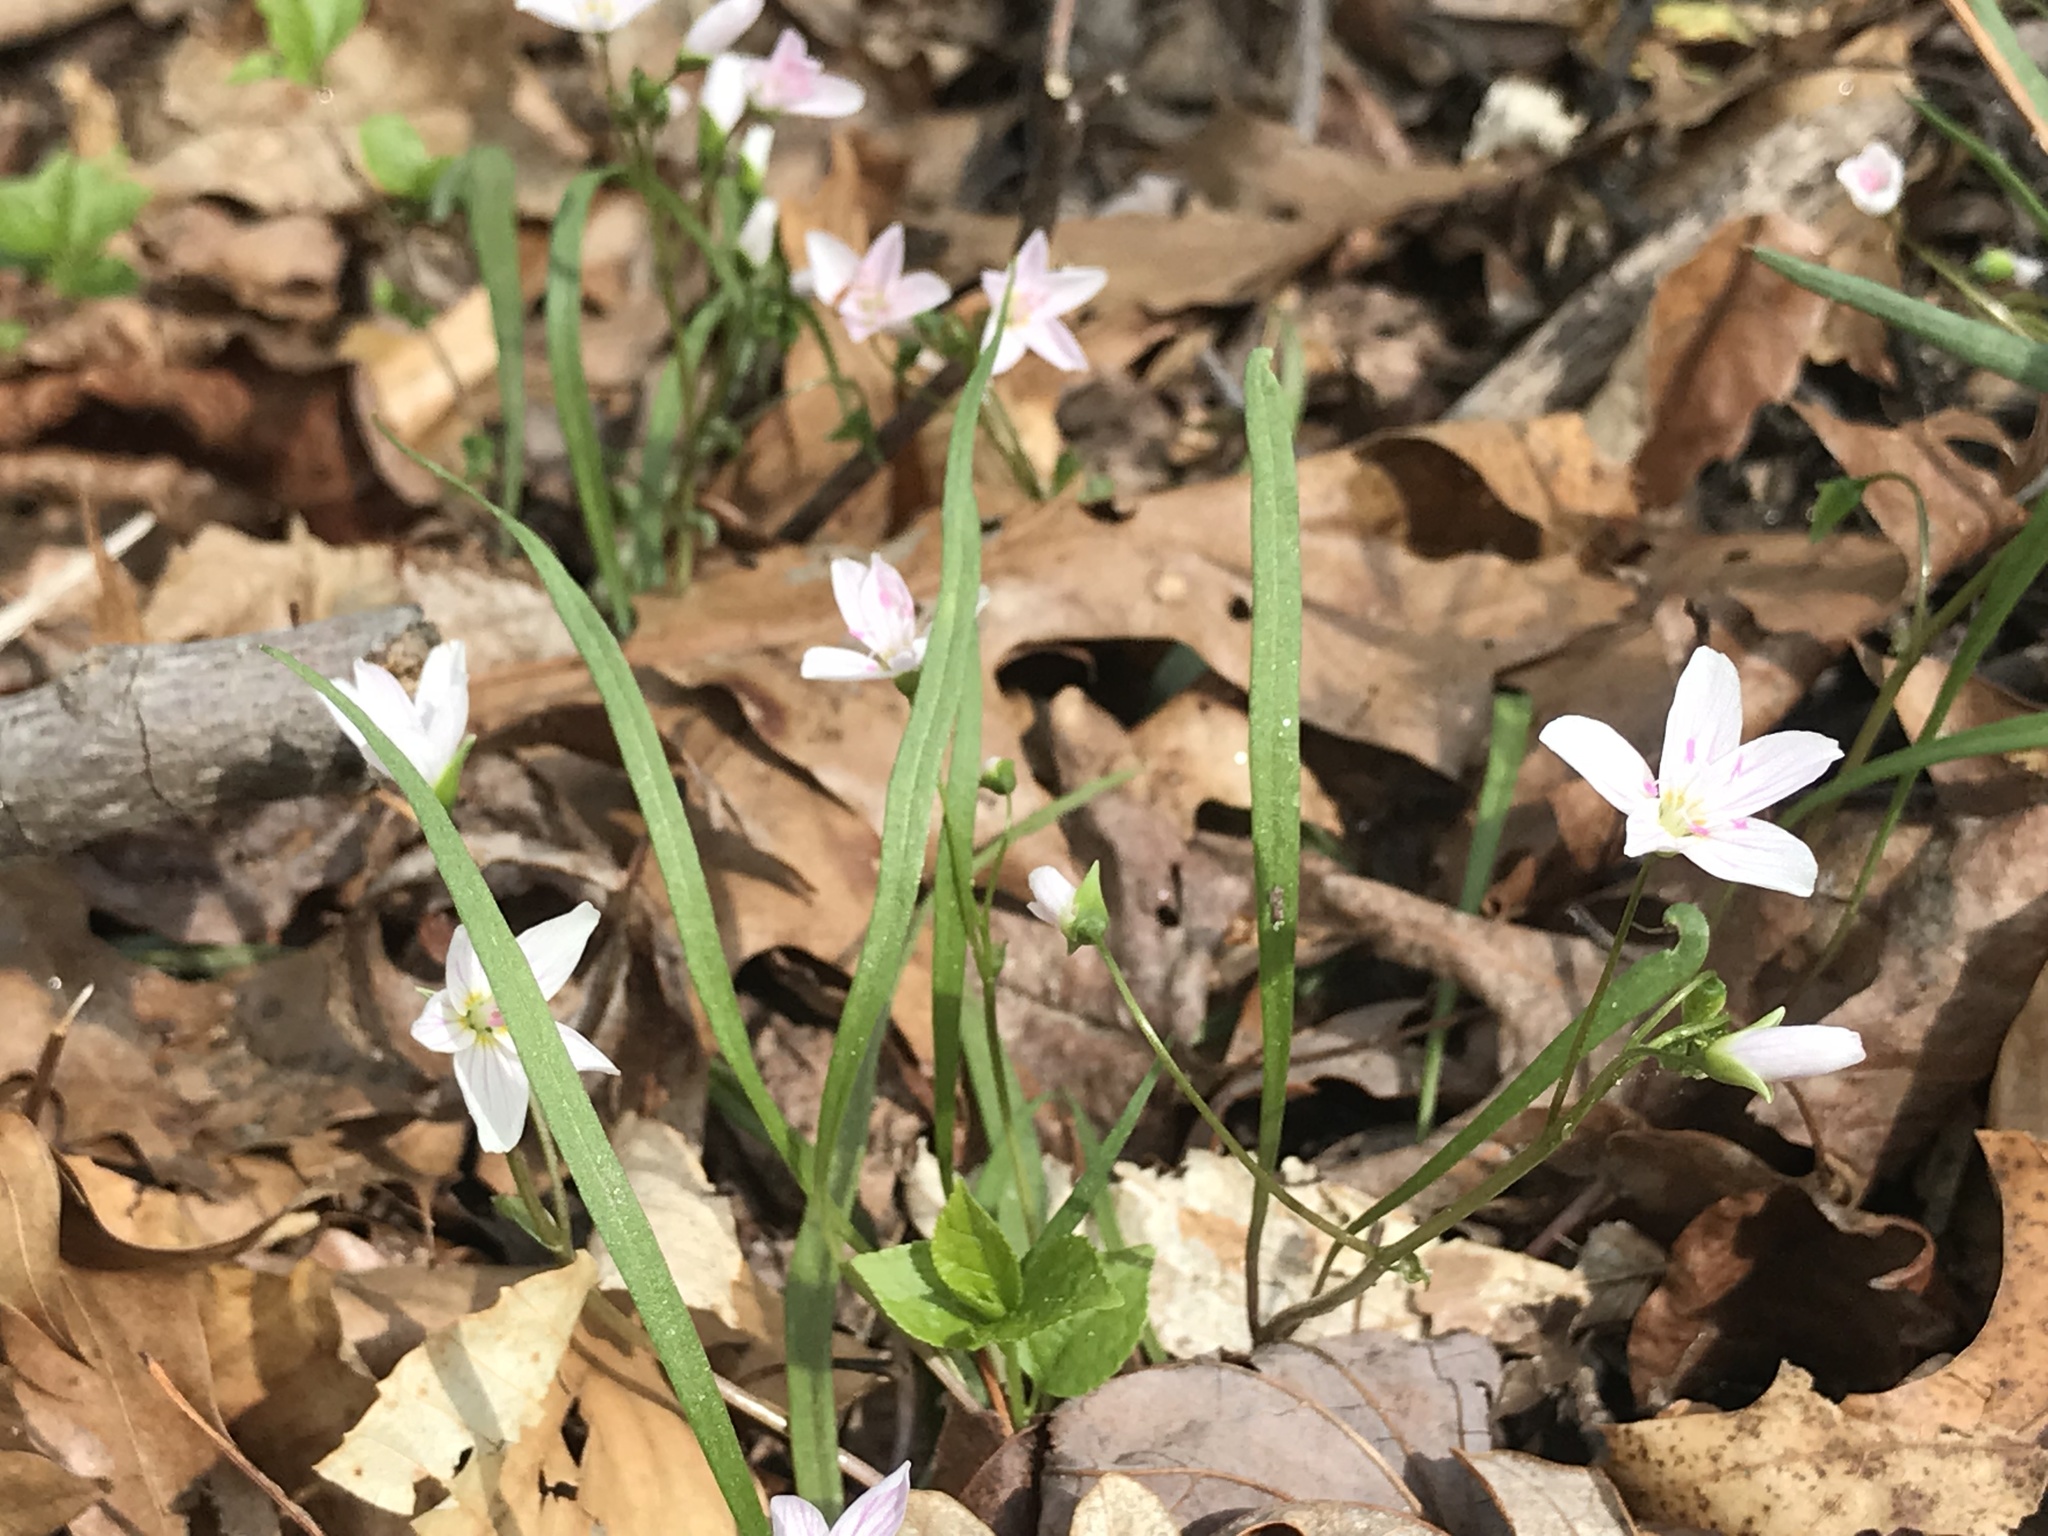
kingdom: Plantae
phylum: Tracheophyta
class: Magnoliopsida
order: Caryophyllales
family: Montiaceae
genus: Claytonia
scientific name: Claytonia virginica
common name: Virginia springbeauty
